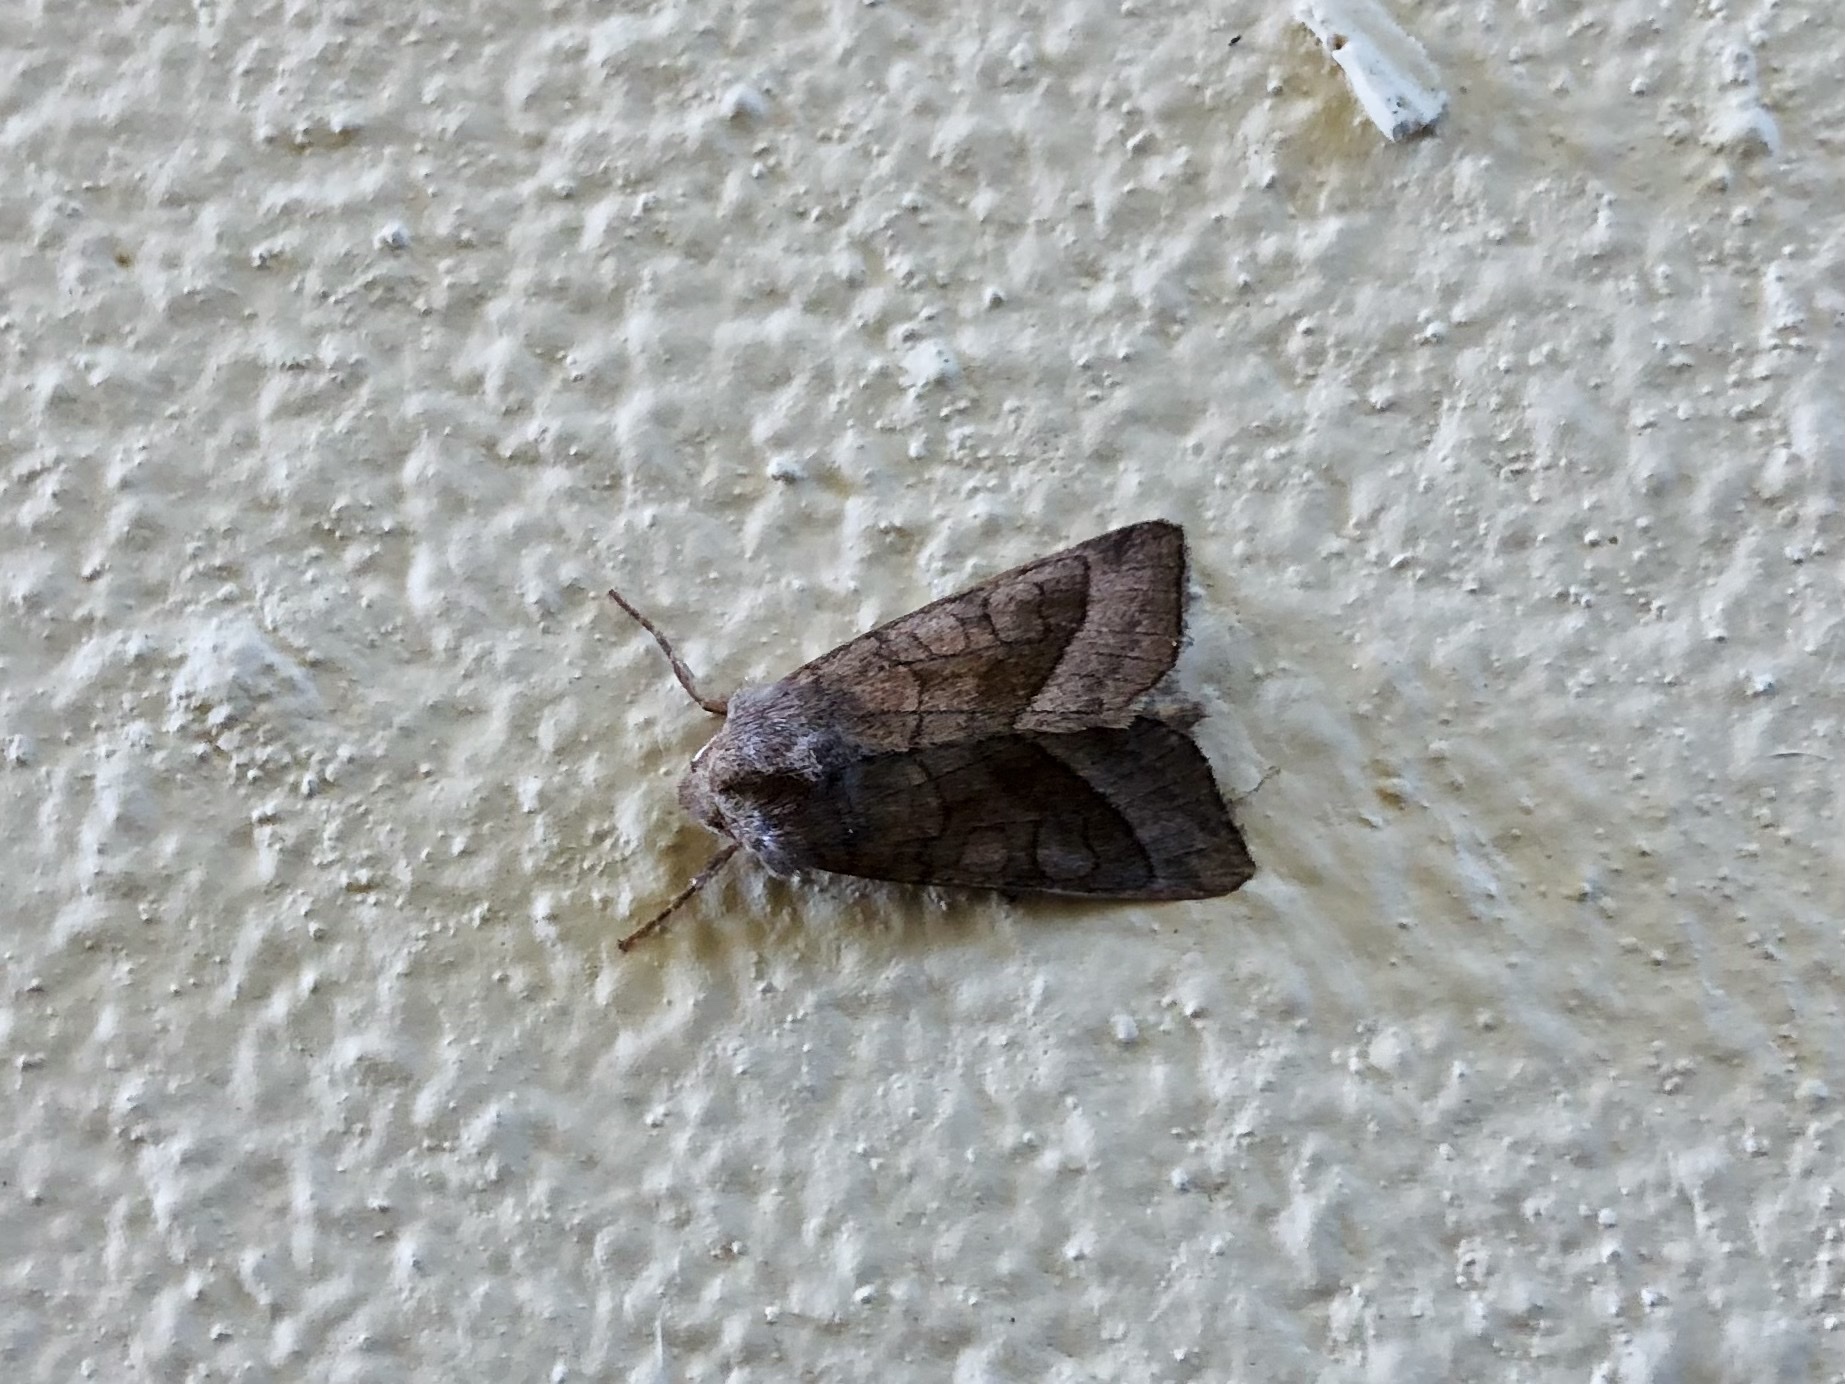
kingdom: Animalia
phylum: Arthropoda
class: Insecta
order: Lepidoptera
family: Noctuidae
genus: Hydraecia
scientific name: Hydraecia micacea
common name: Rosy rustic
